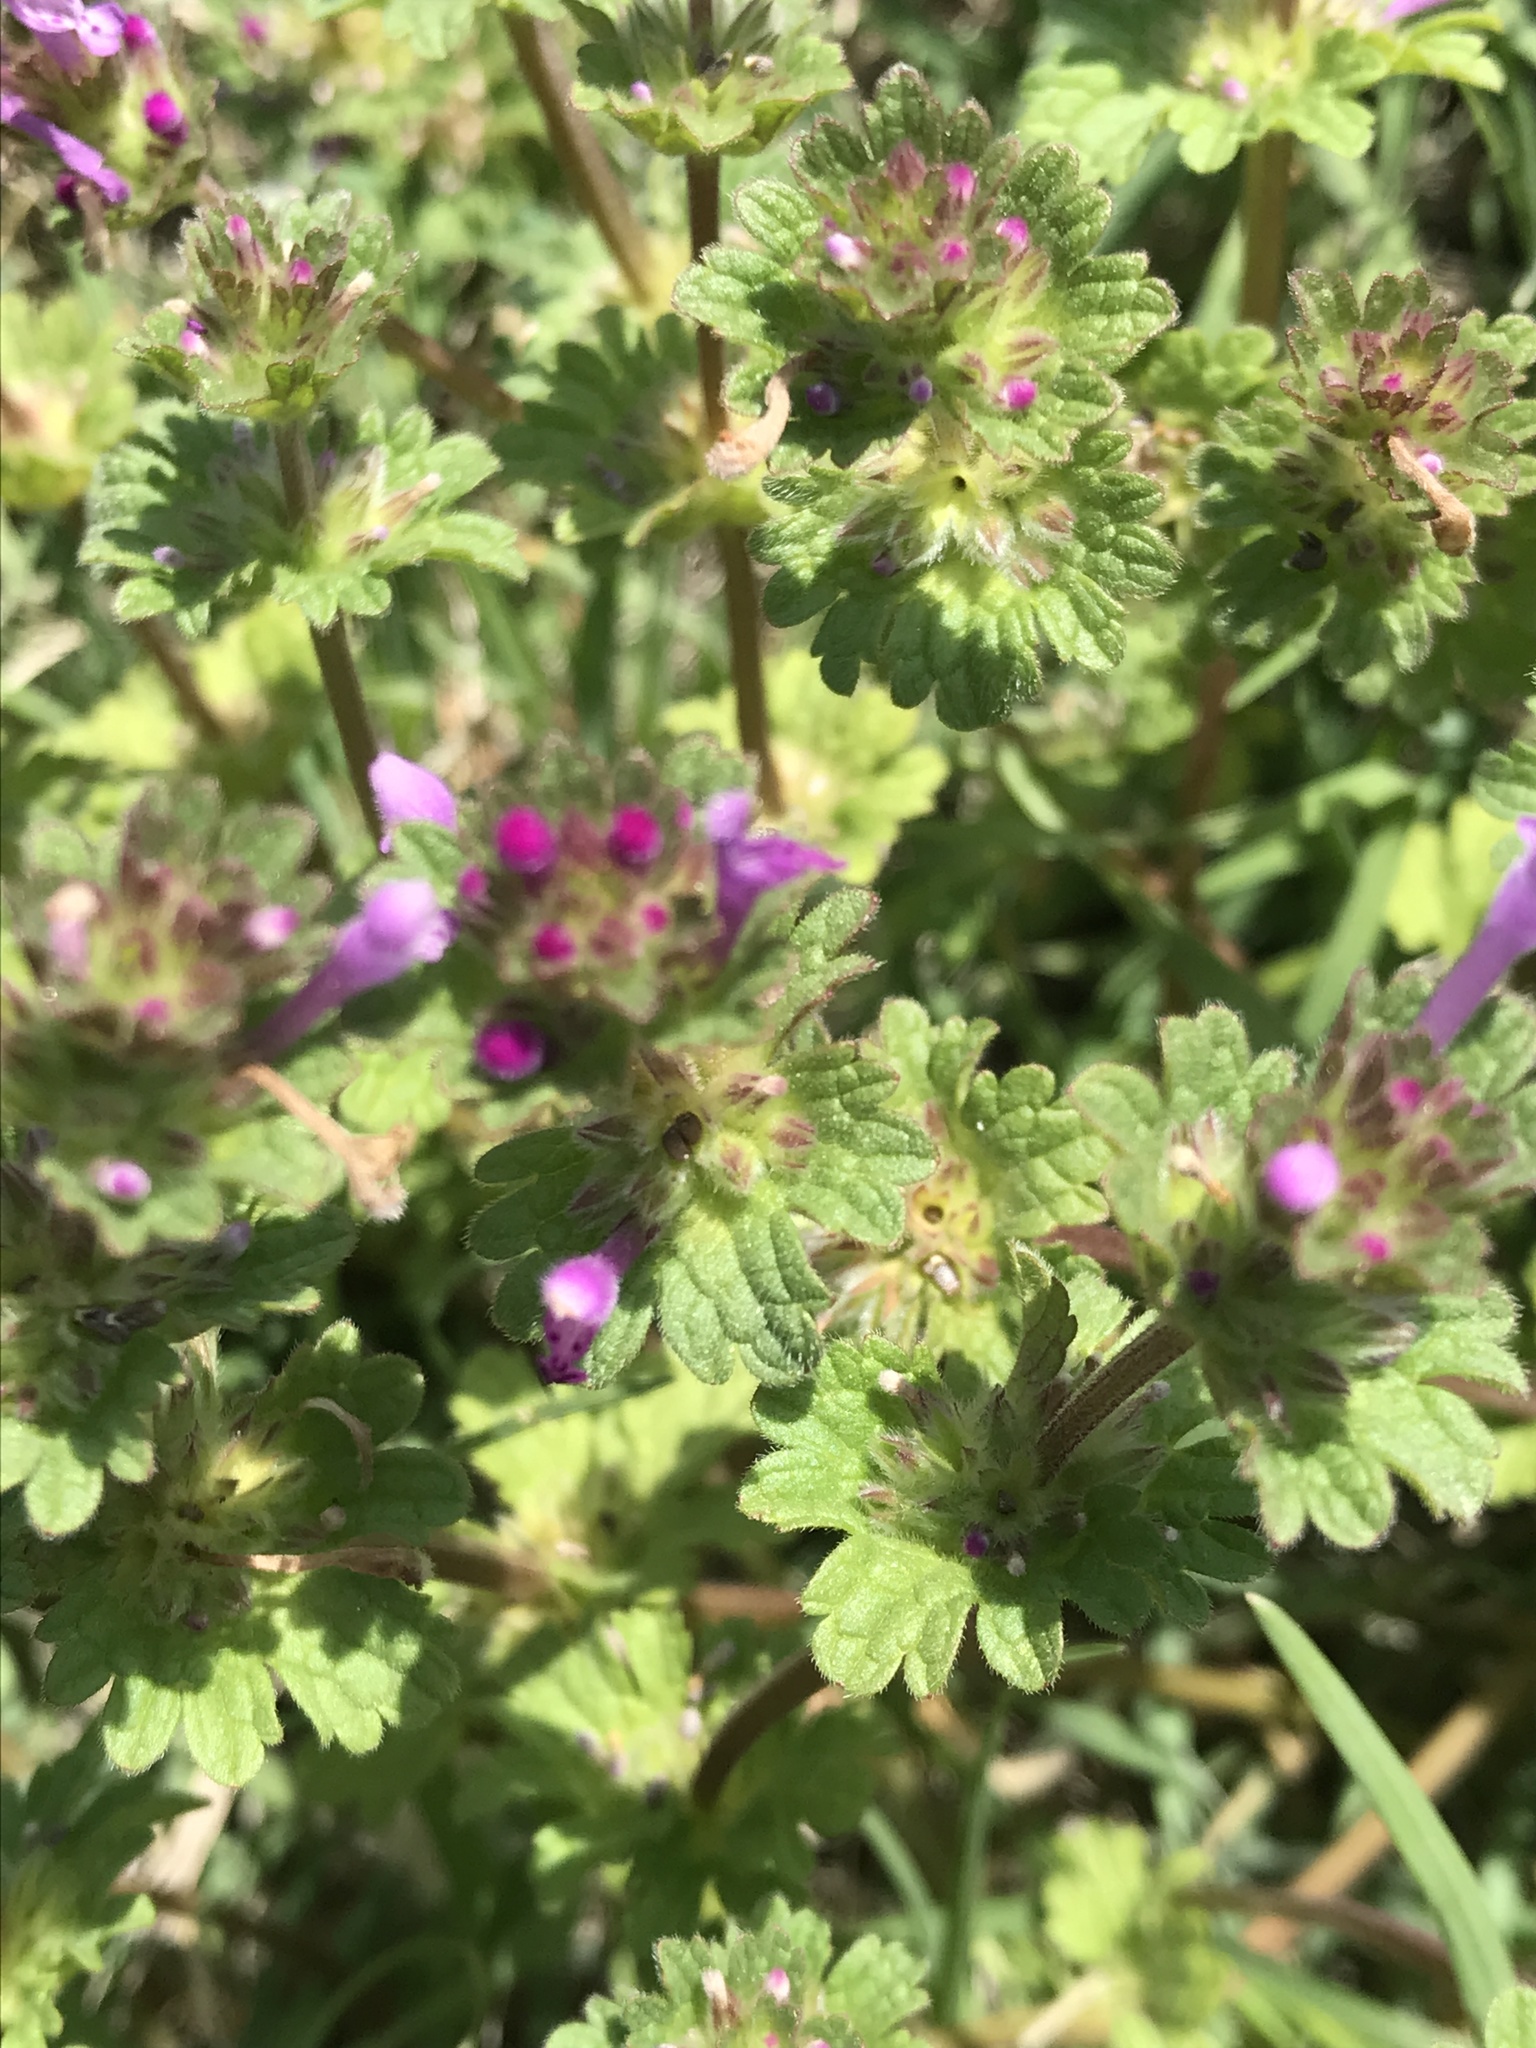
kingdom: Plantae
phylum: Tracheophyta
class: Magnoliopsida
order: Lamiales
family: Lamiaceae
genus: Lamium
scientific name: Lamium amplexicaule
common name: Henbit dead-nettle
